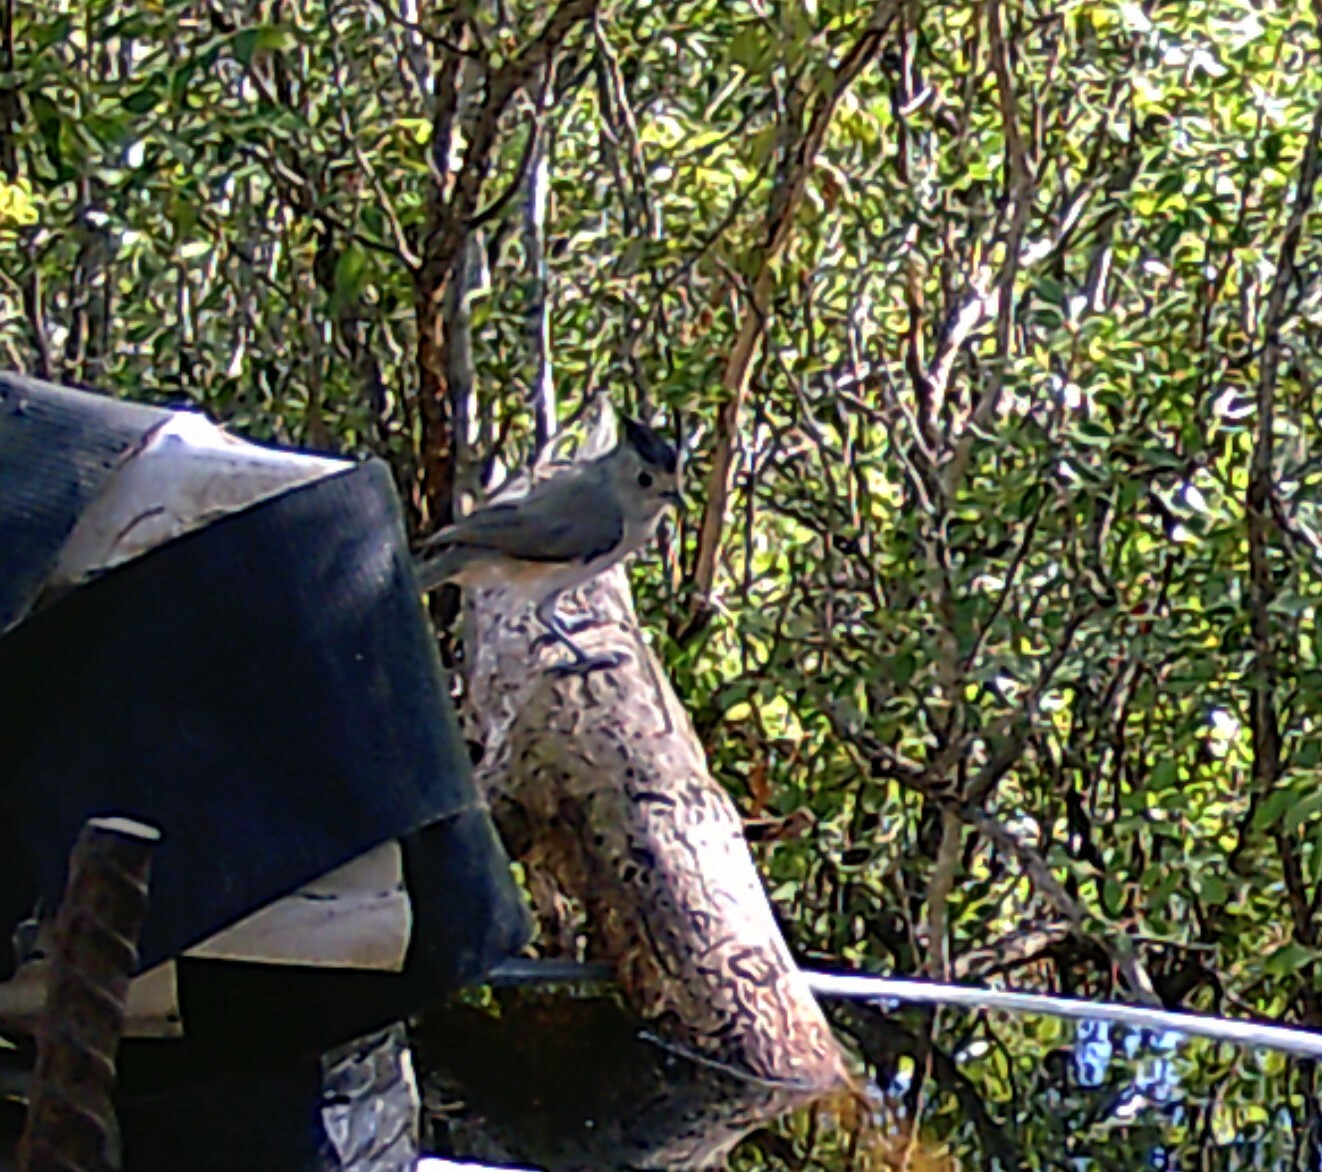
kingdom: Animalia
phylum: Chordata
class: Aves
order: Passeriformes
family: Paridae
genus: Baeolophus
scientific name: Baeolophus atricristatus
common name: Black-crested titmouse
